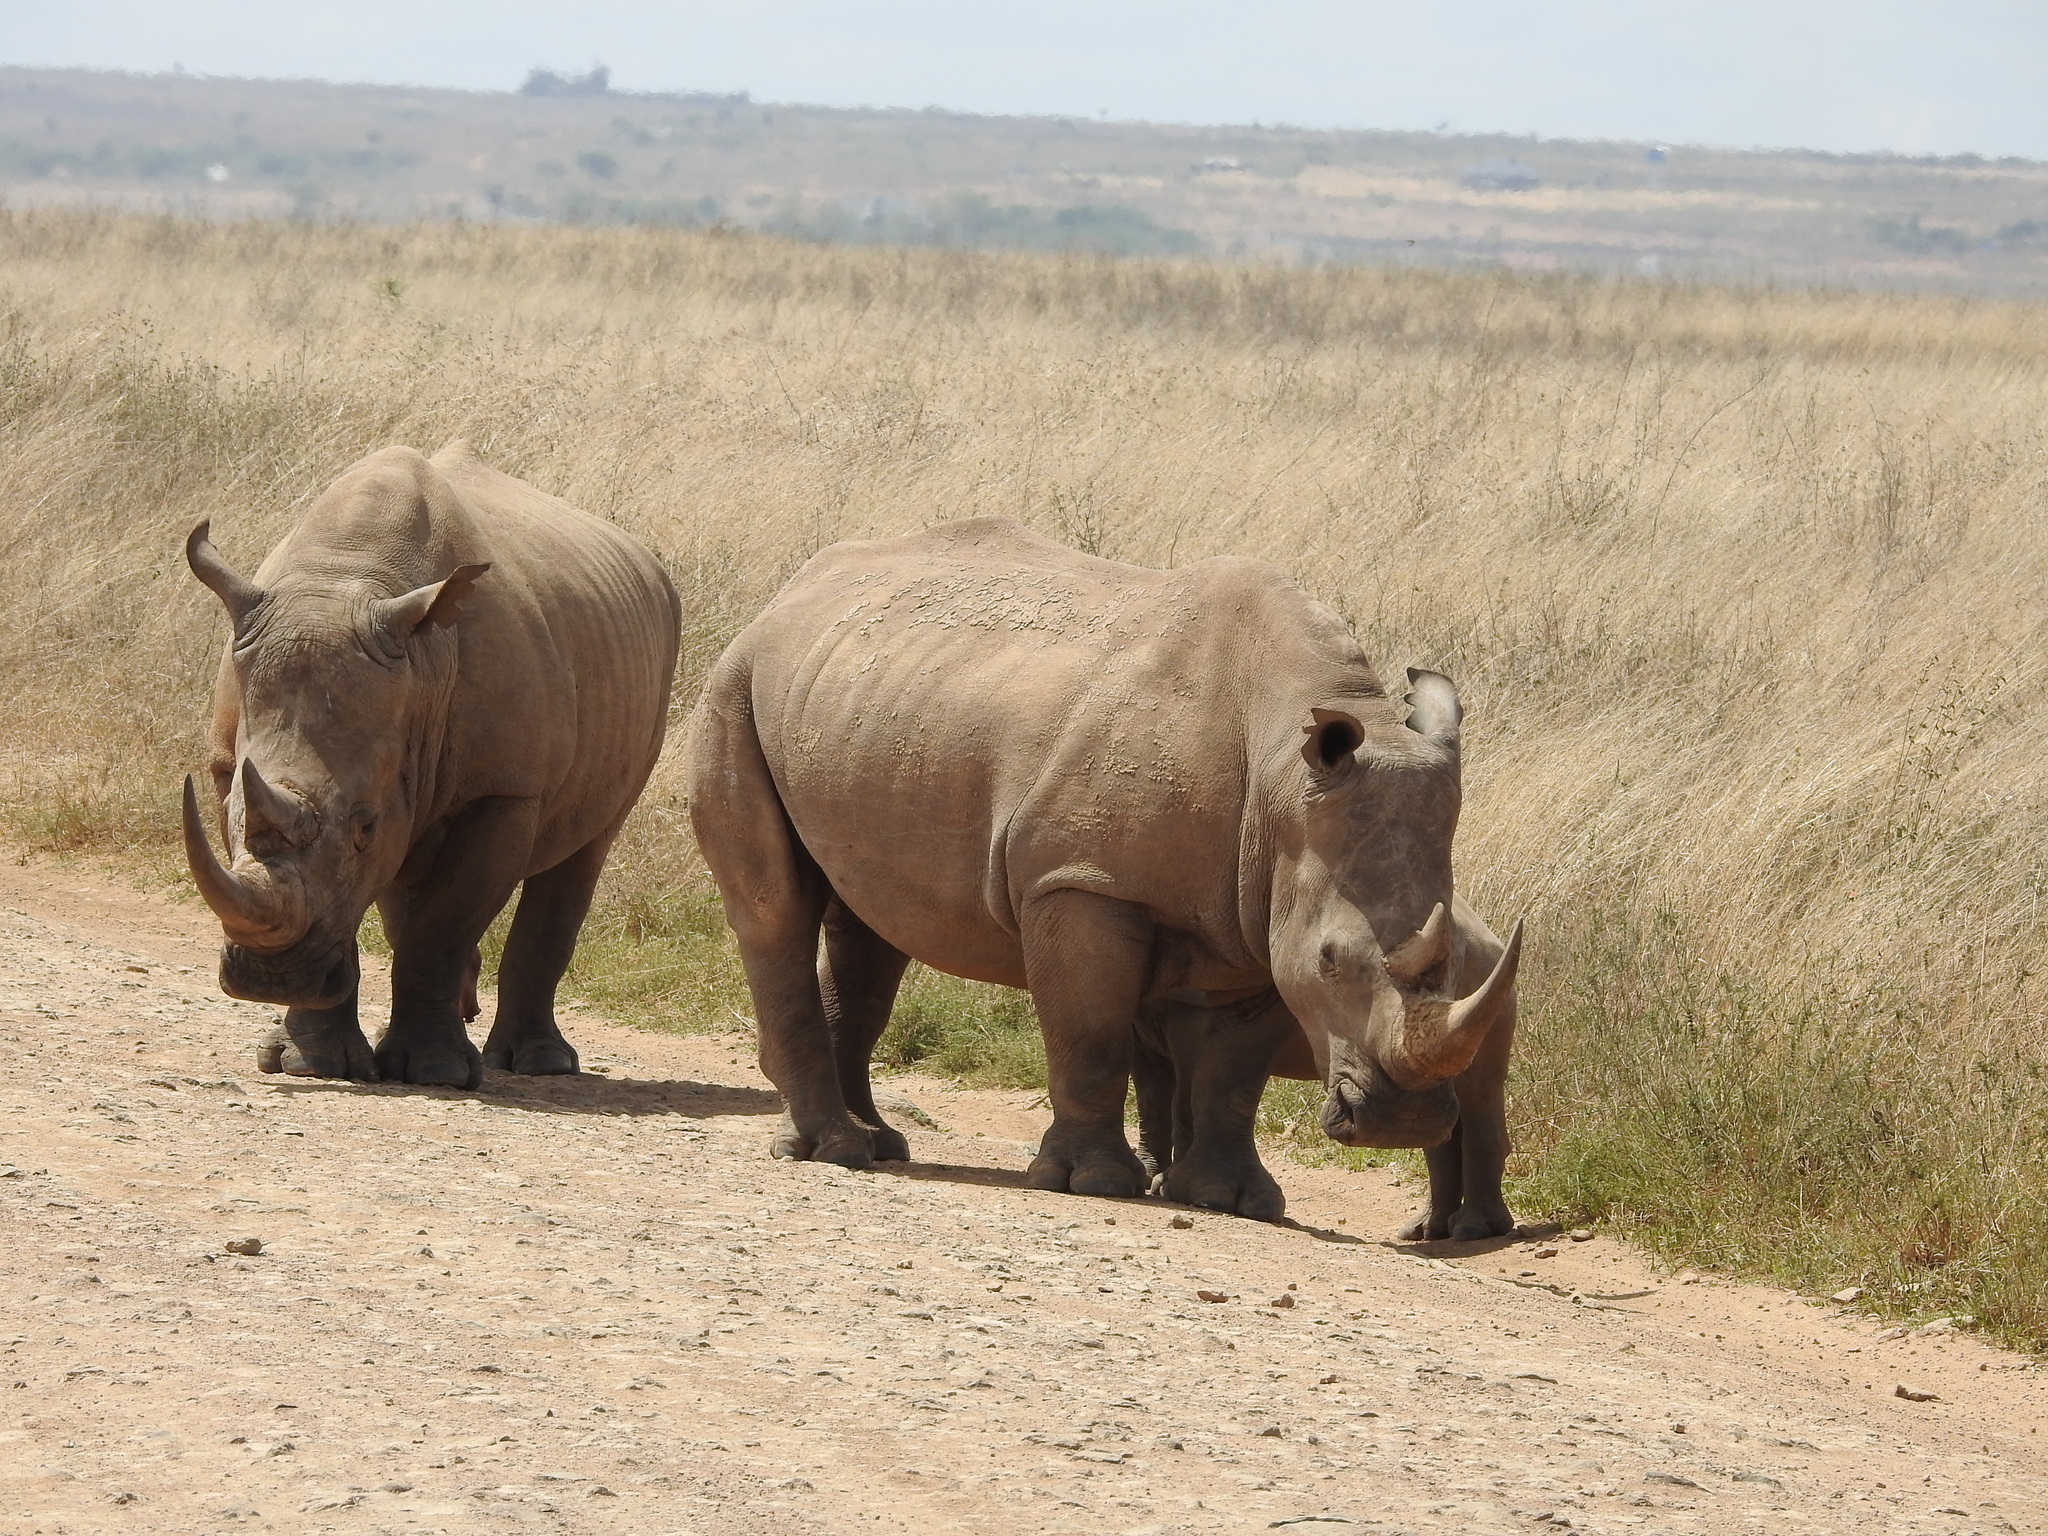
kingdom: Animalia
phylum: Chordata
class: Mammalia
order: Perissodactyla
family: Rhinocerotidae
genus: Ceratotherium
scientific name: Ceratotherium simum
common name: White rhinoceros
